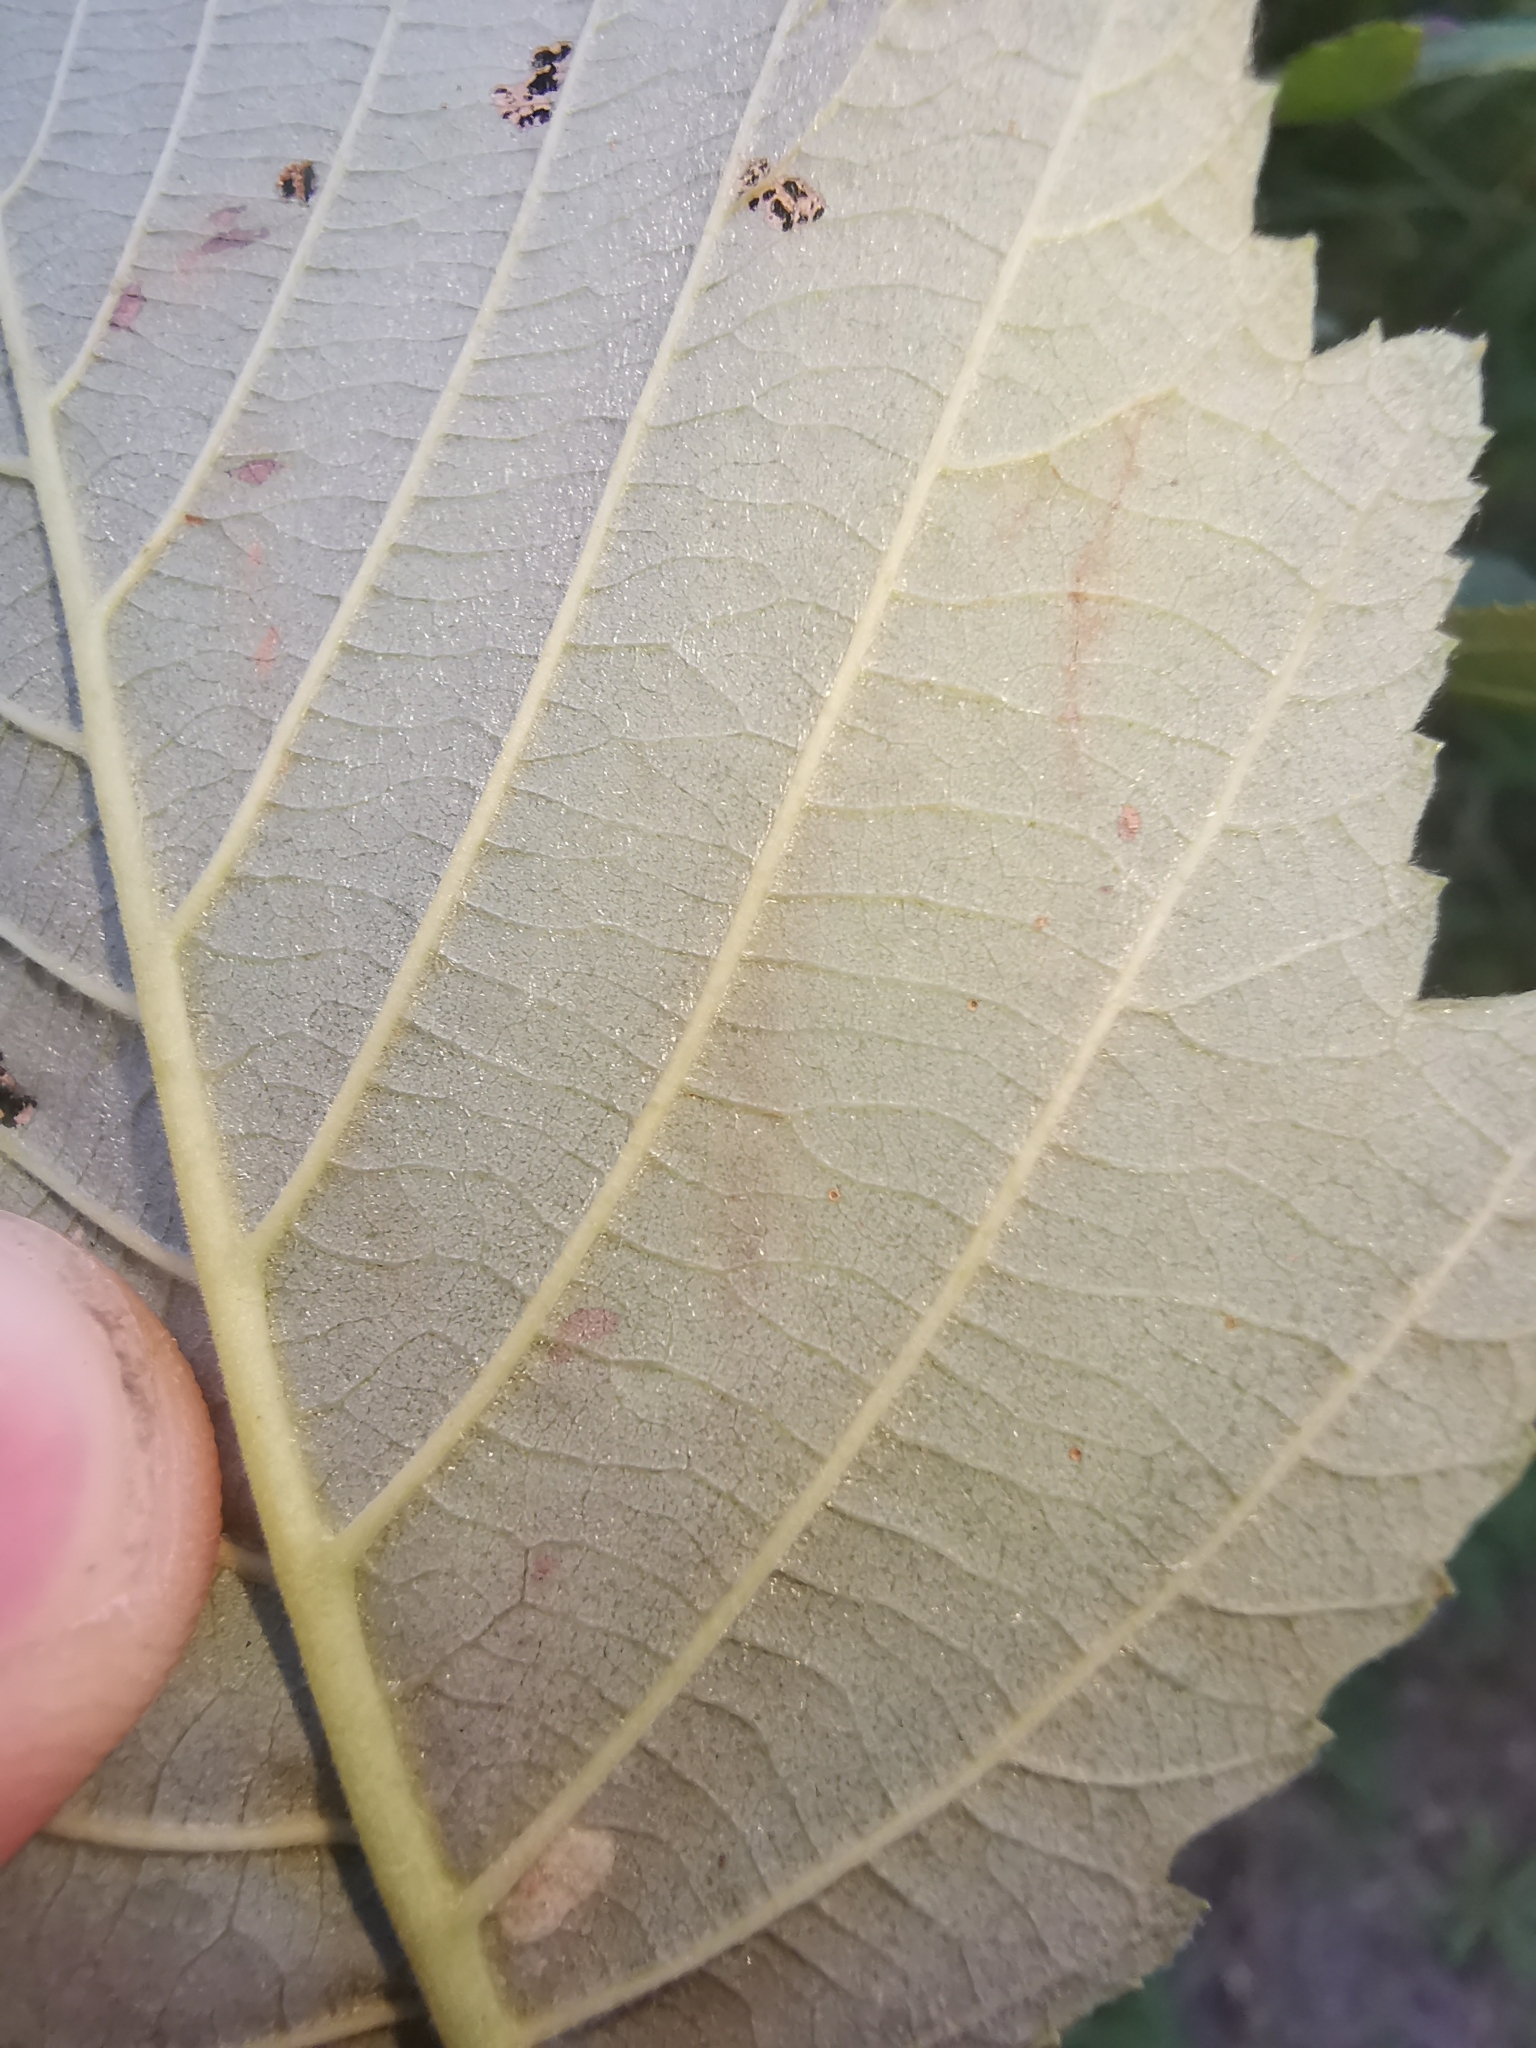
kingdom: Animalia
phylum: Arthropoda
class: Insecta
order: Diptera
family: Agromyzidae
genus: Agromyza
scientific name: Agromyza alnivora
